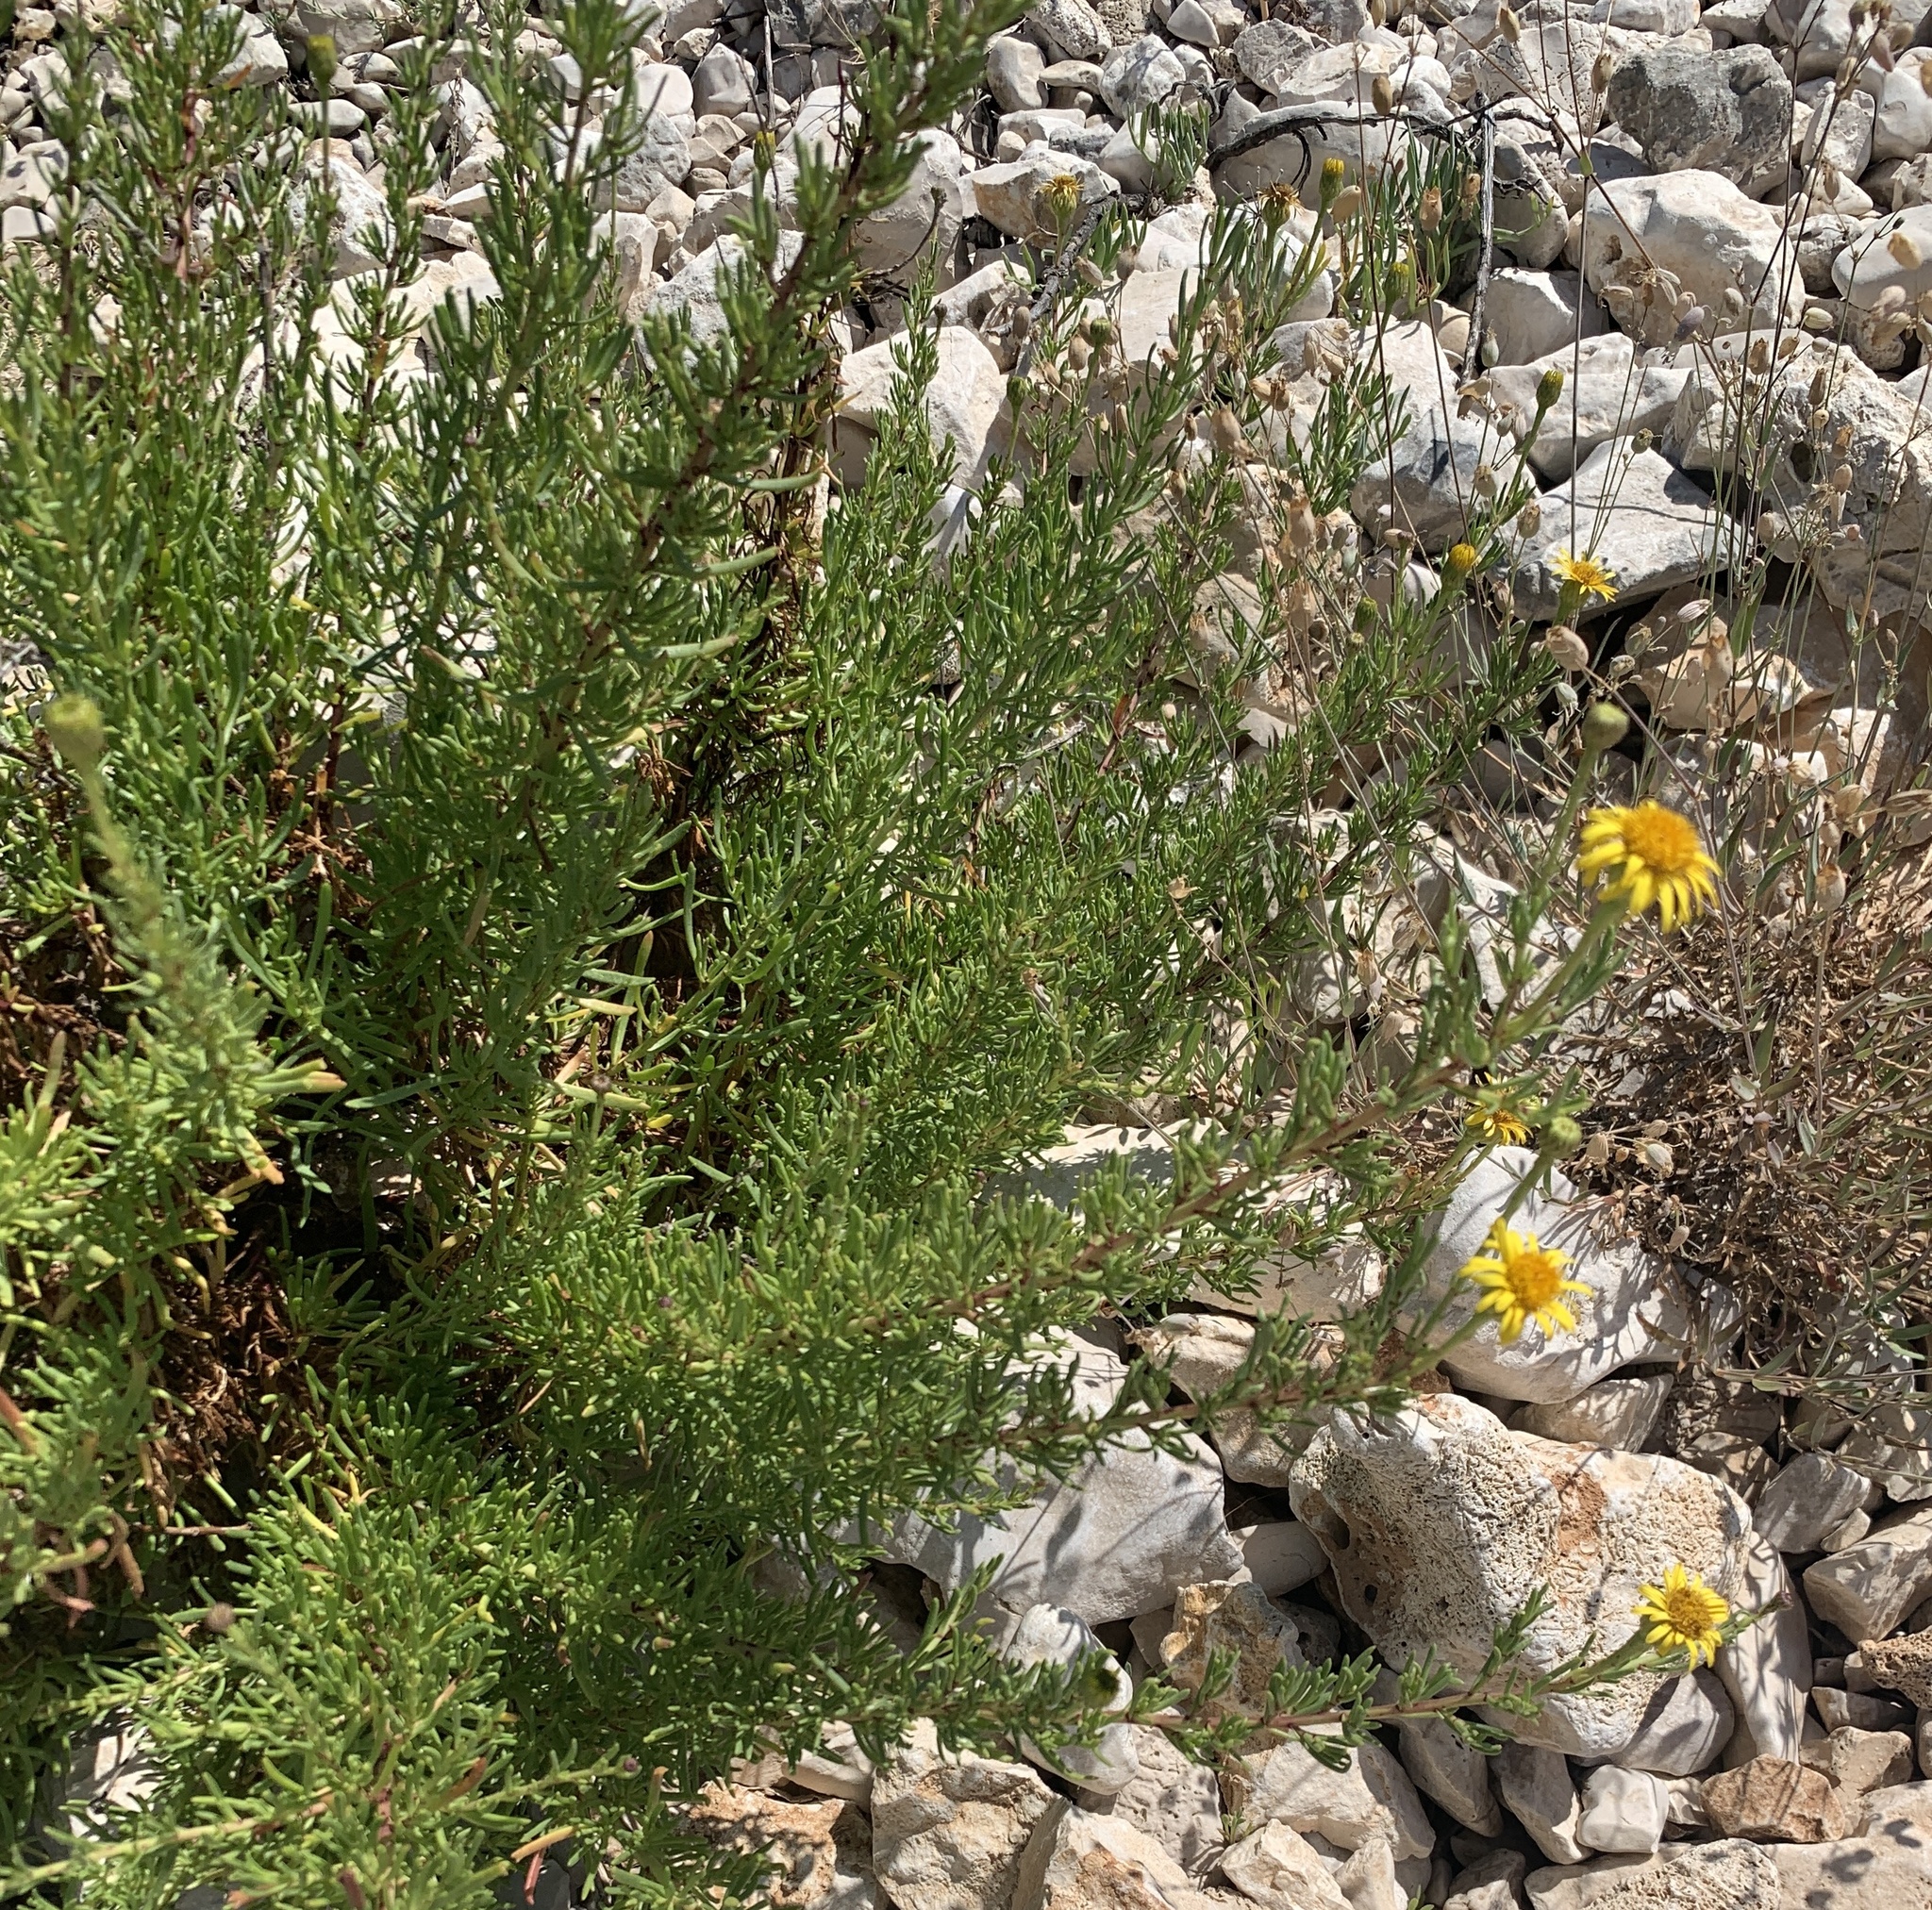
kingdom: Plantae
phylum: Tracheophyta
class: Magnoliopsida
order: Asterales
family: Asteraceae
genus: Limbarda
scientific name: Limbarda crithmoides
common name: Golden samphire
